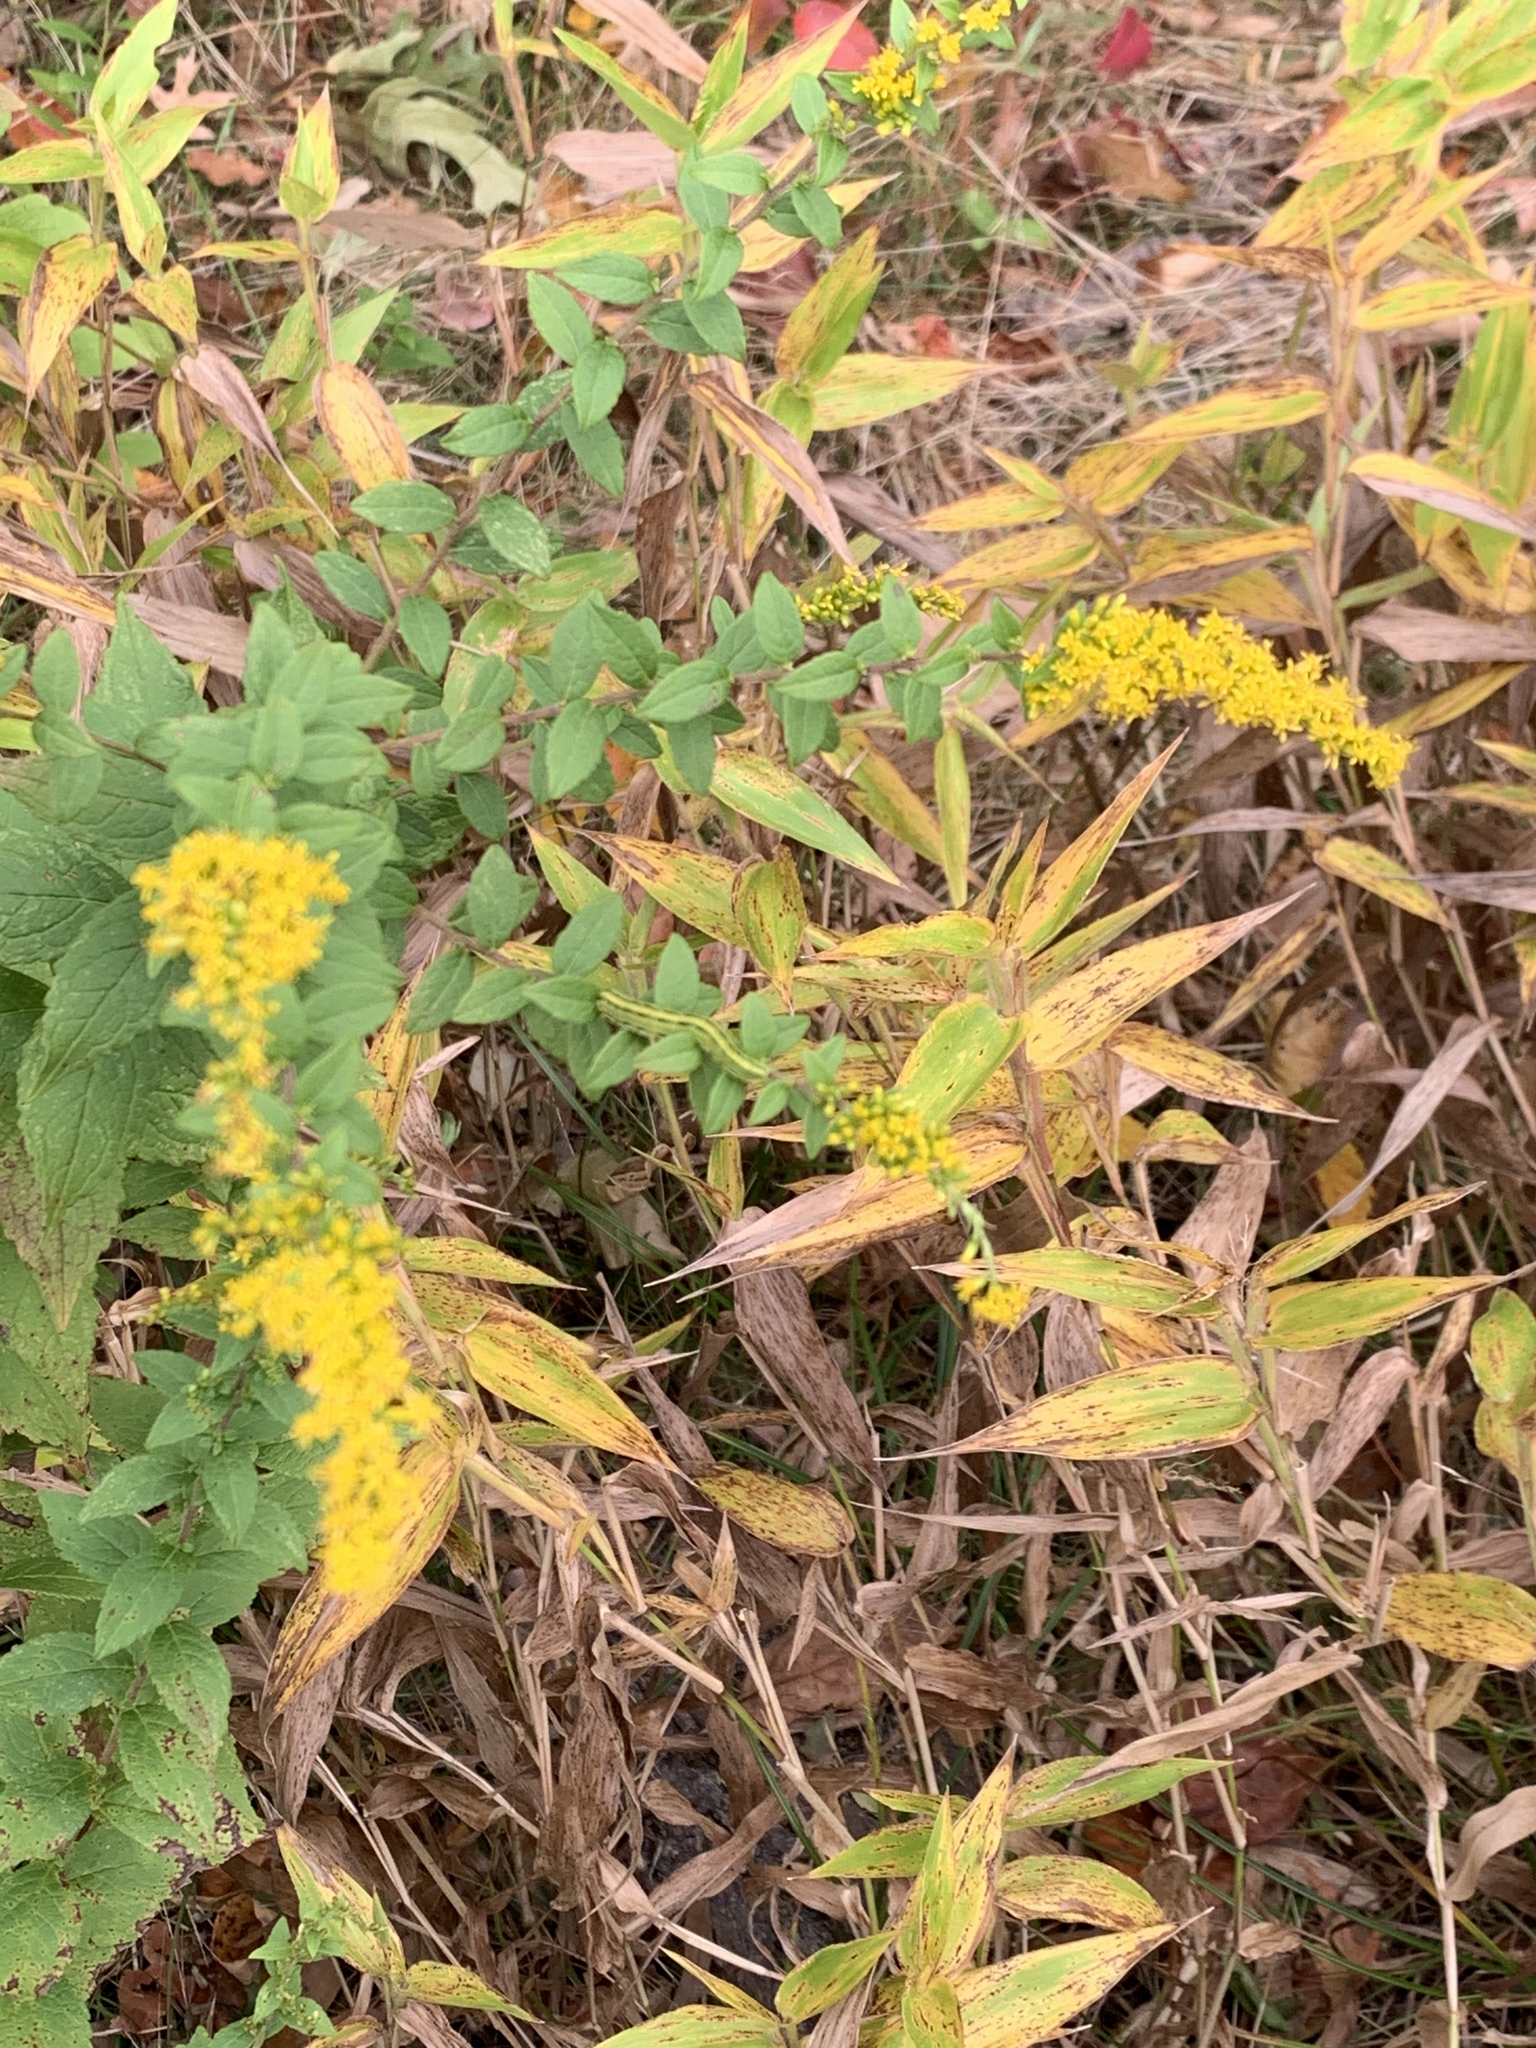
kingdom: Plantae
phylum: Tracheophyta
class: Magnoliopsida
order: Asterales
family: Asteraceae
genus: Solidago
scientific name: Solidago rugosa
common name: Rough-stemmed goldenrod
